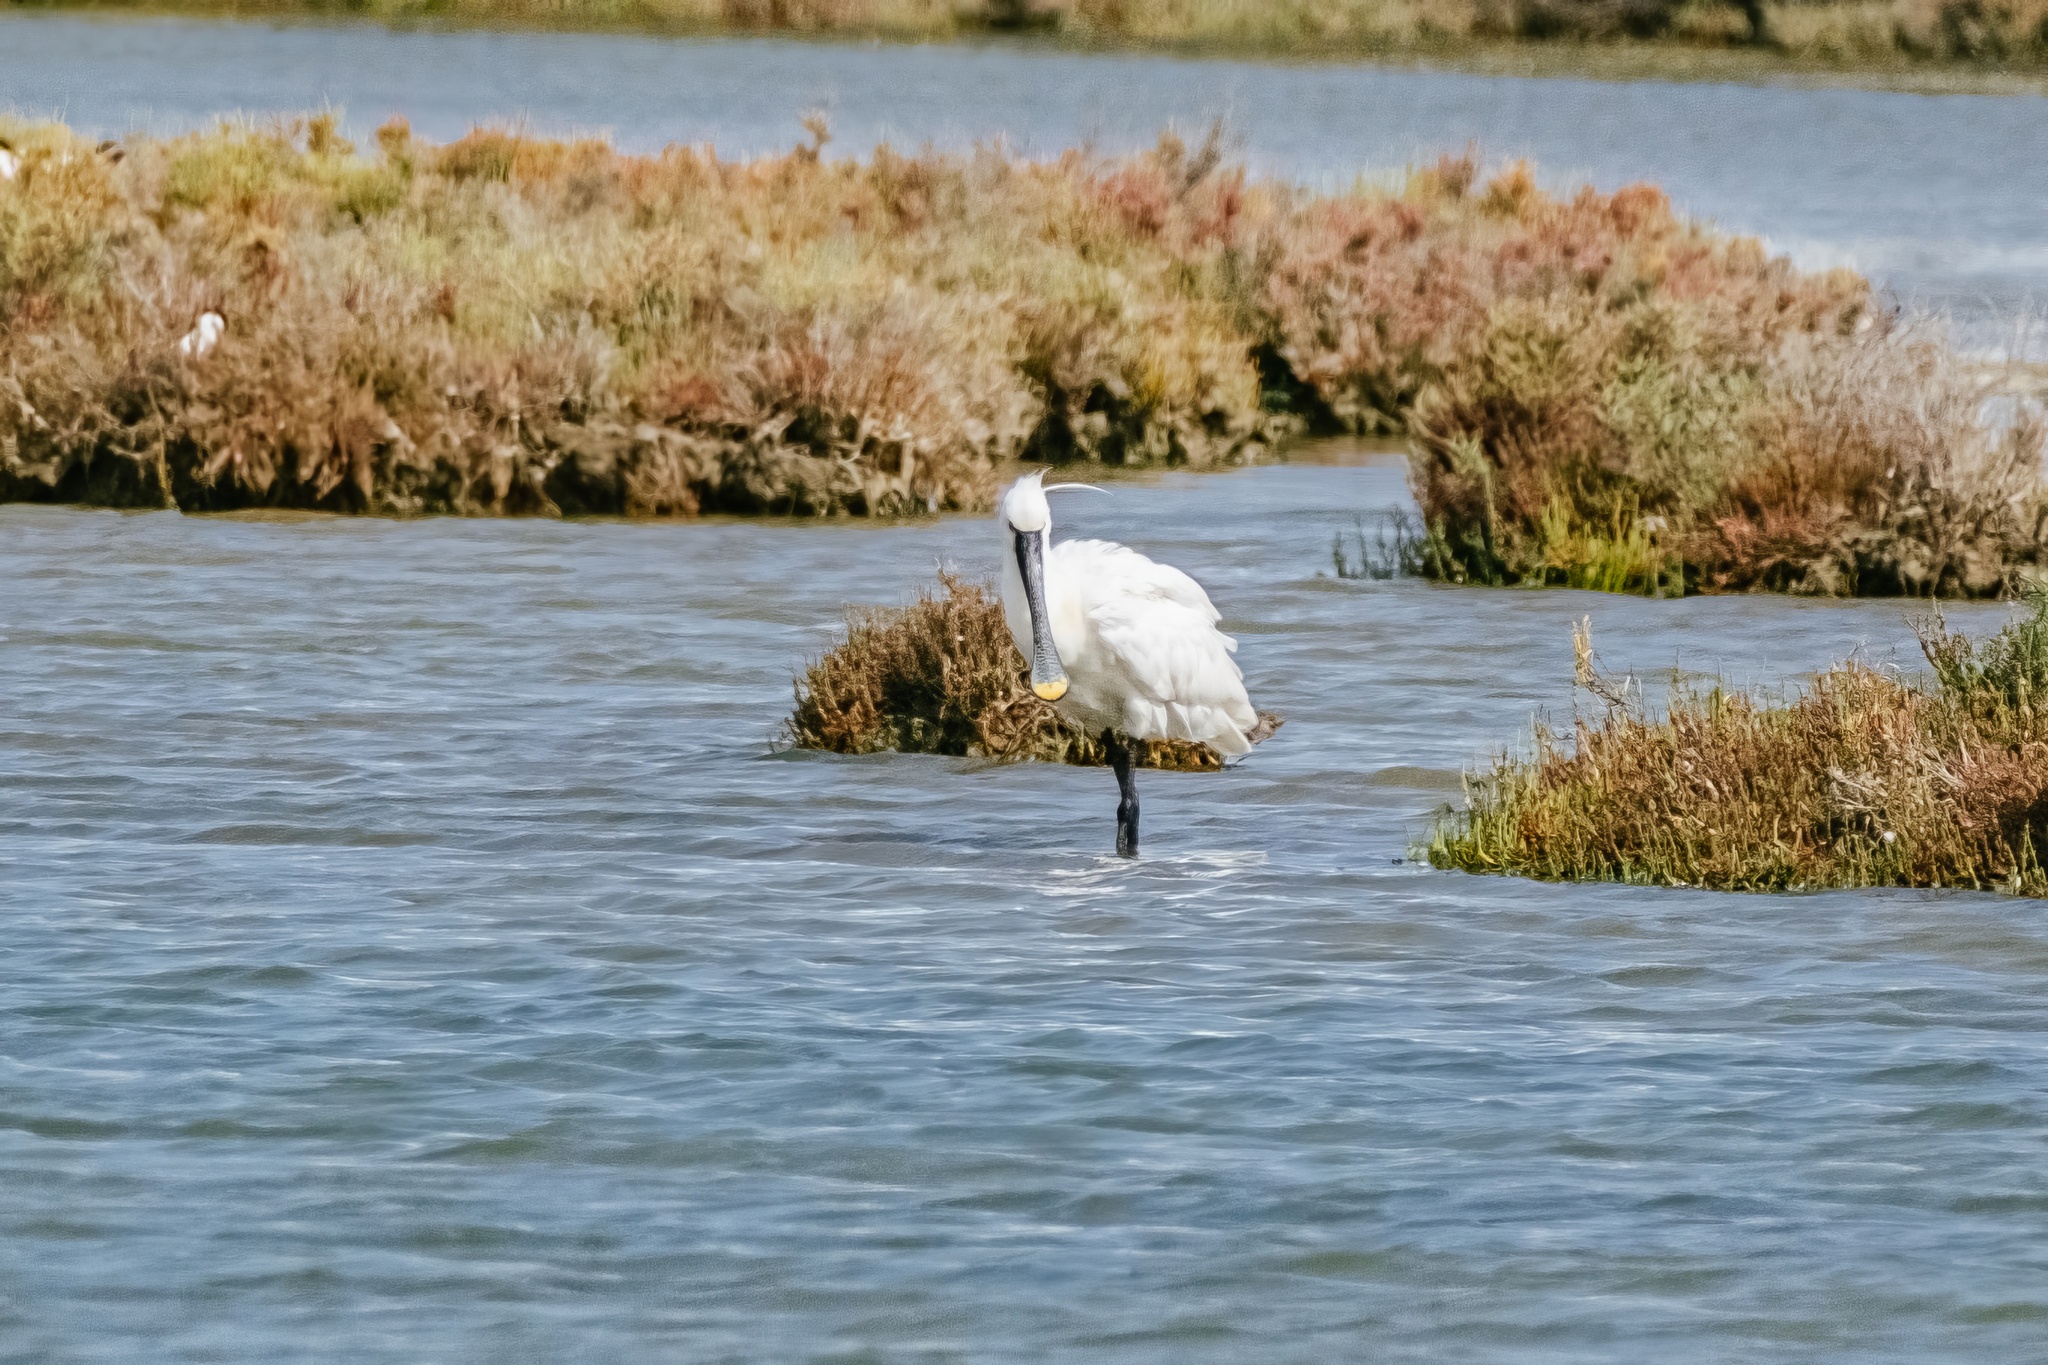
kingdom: Animalia
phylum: Chordata
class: Aves
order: Pelecaniformes
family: Threskiornithidae
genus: Platalea
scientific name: Platalea leucorodia
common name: Eurasian spoonbill
